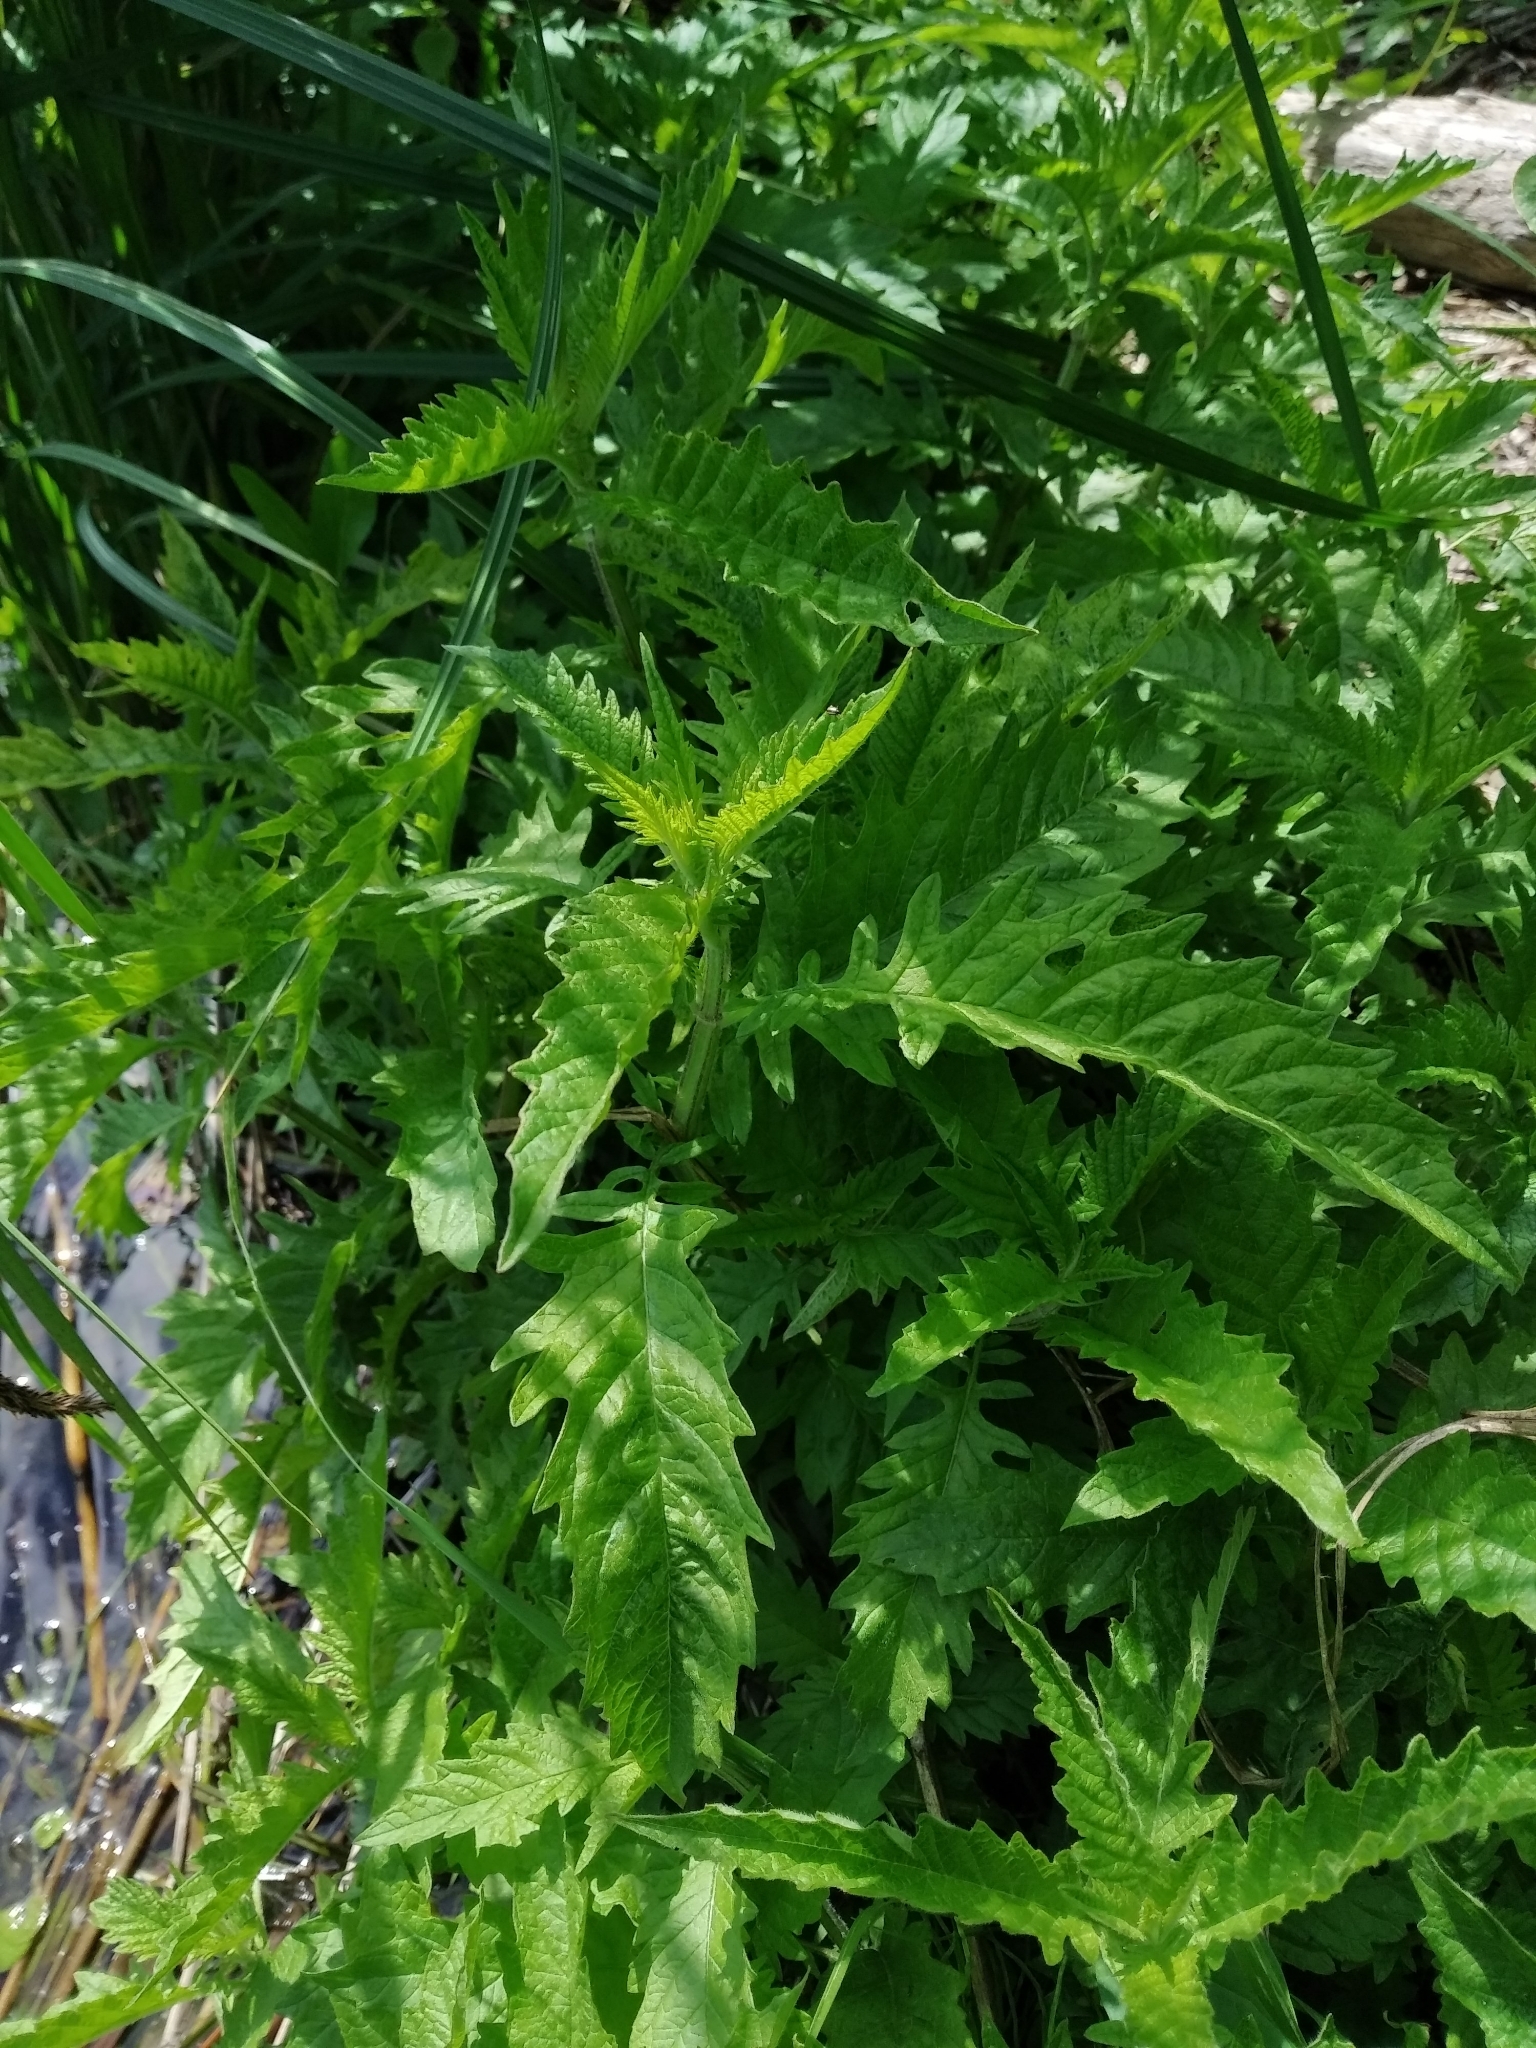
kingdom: Plantae
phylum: Tracheophyta
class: Magnoliopsida
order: Lamiales
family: Lamiaceae
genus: Lycopus
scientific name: Lycopus europaeus
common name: European bugleweed
